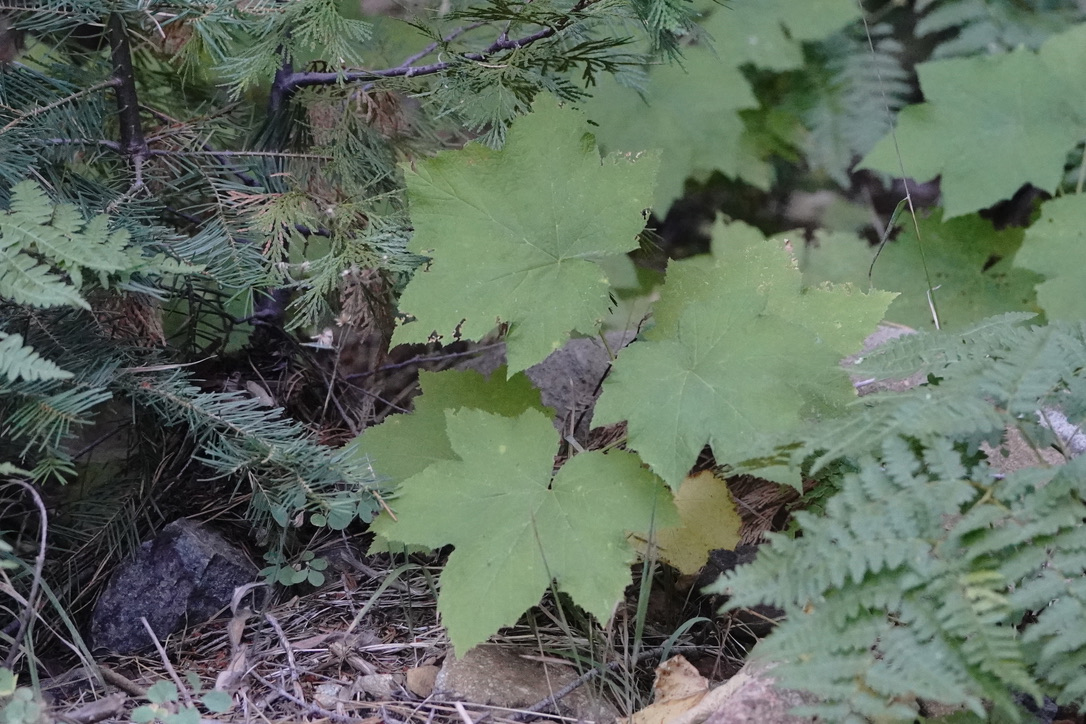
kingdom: Plantae
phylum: Tracheophyta
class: Magnoliopsida
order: Rosales
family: Rosaceae
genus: Rubus
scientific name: Rubus parviflorus
